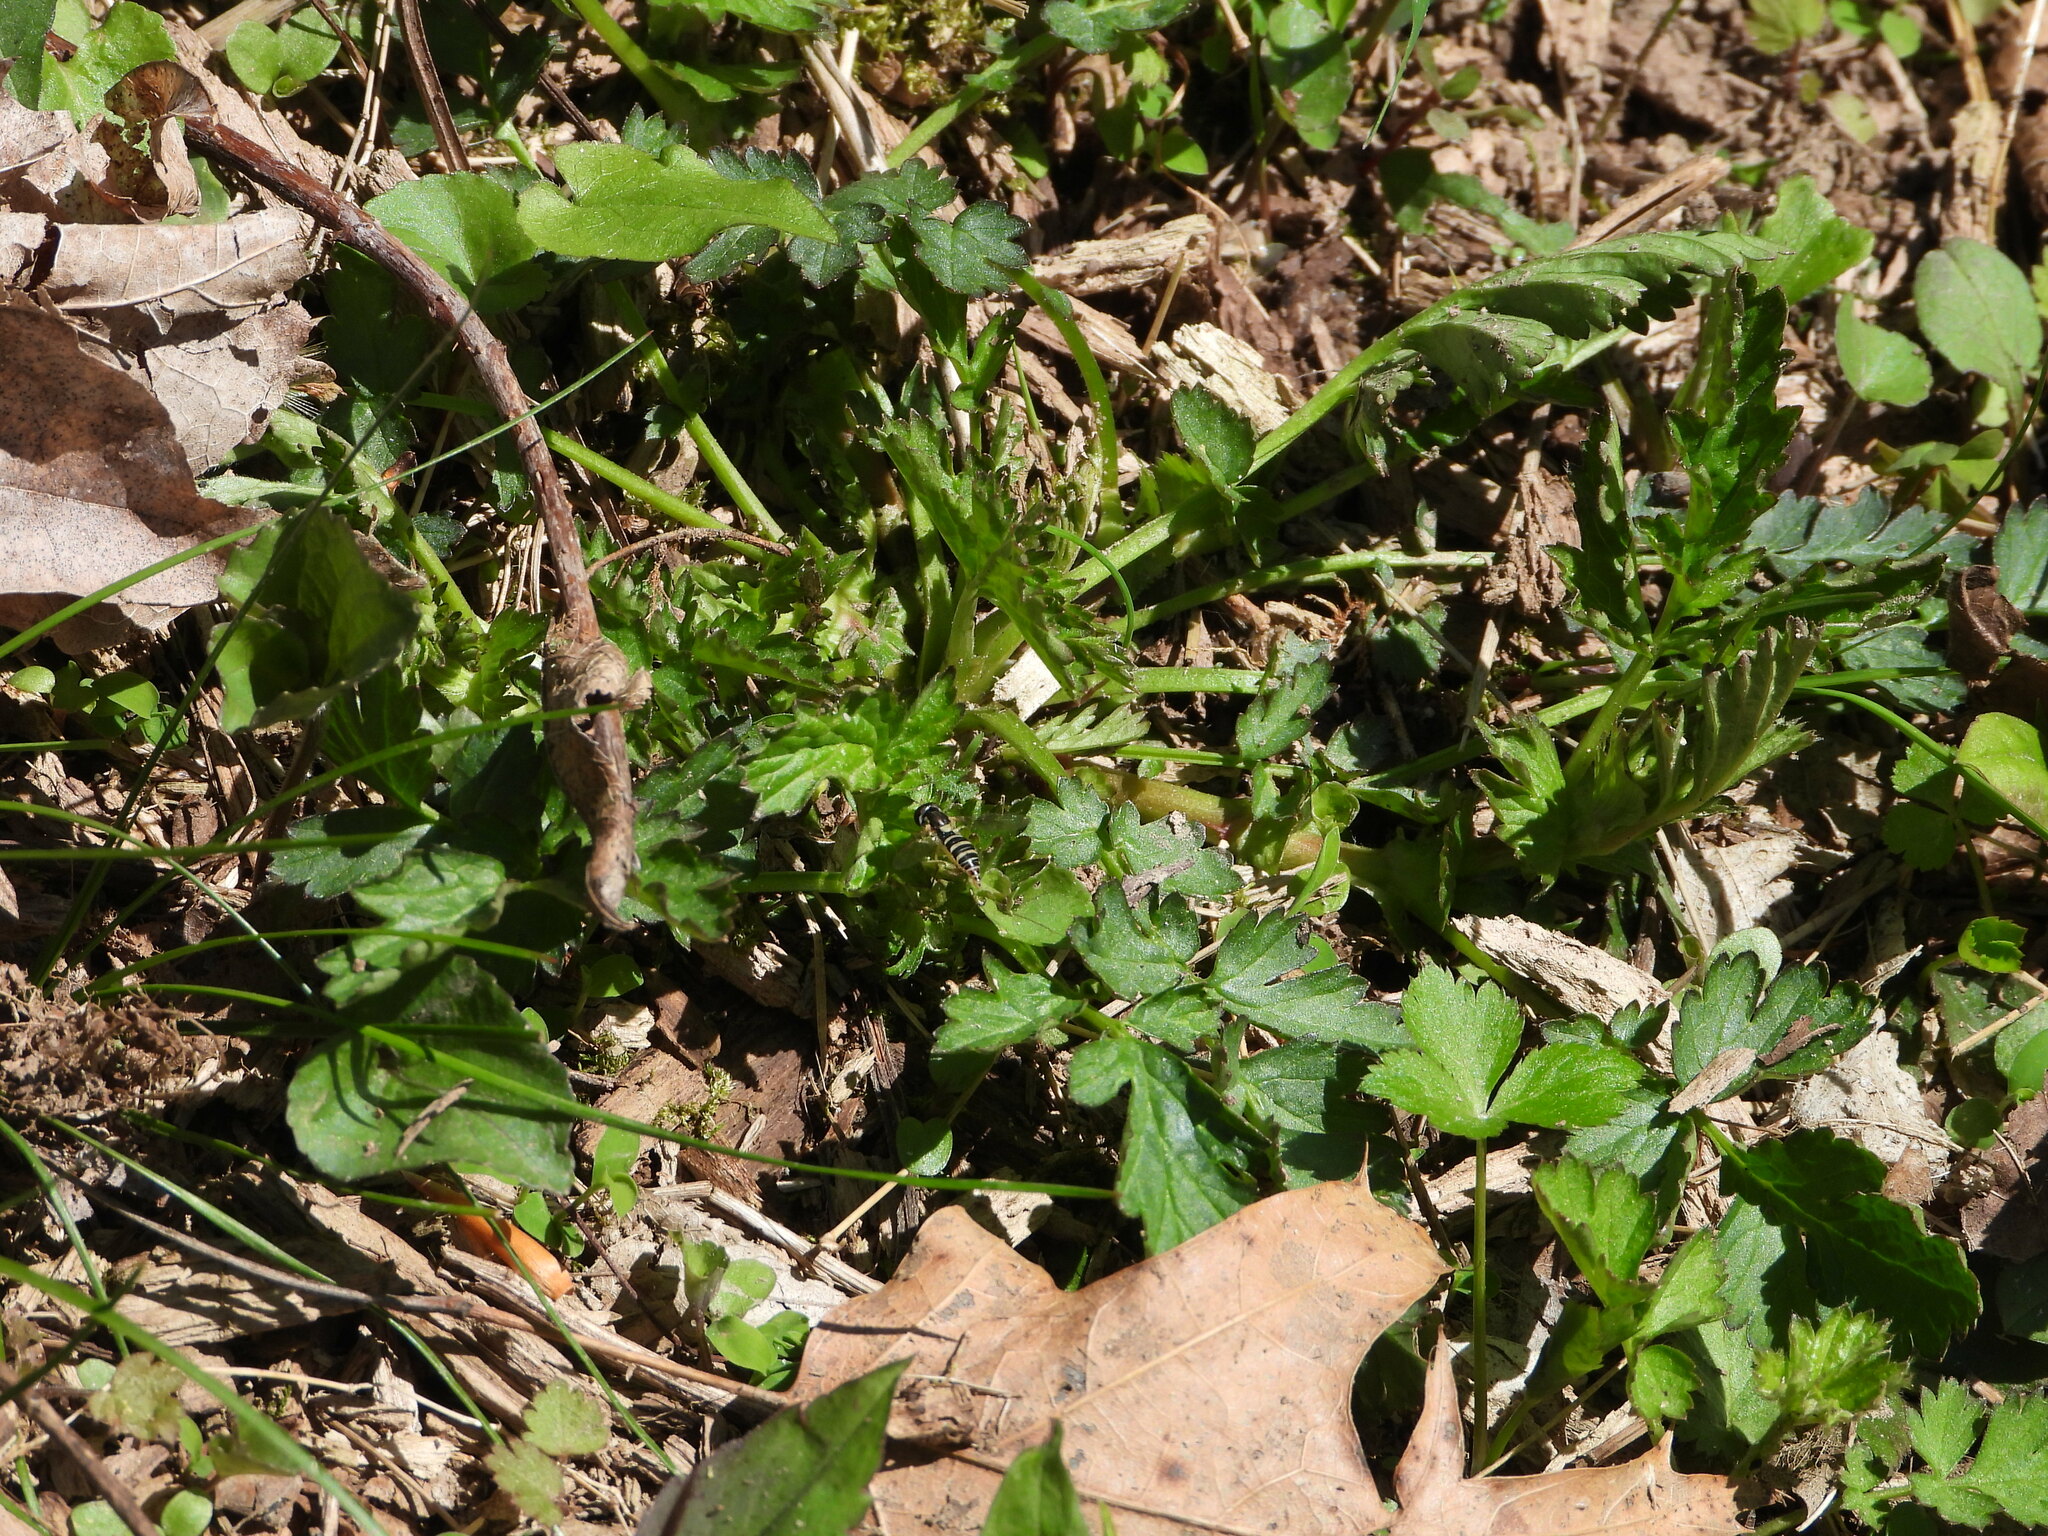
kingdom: Animalia
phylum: Arthropoda
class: Insecta
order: Diptera
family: Syrphidae
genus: Sphaerophoria
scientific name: Sphaerophoria contigua
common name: Tufted globetail
